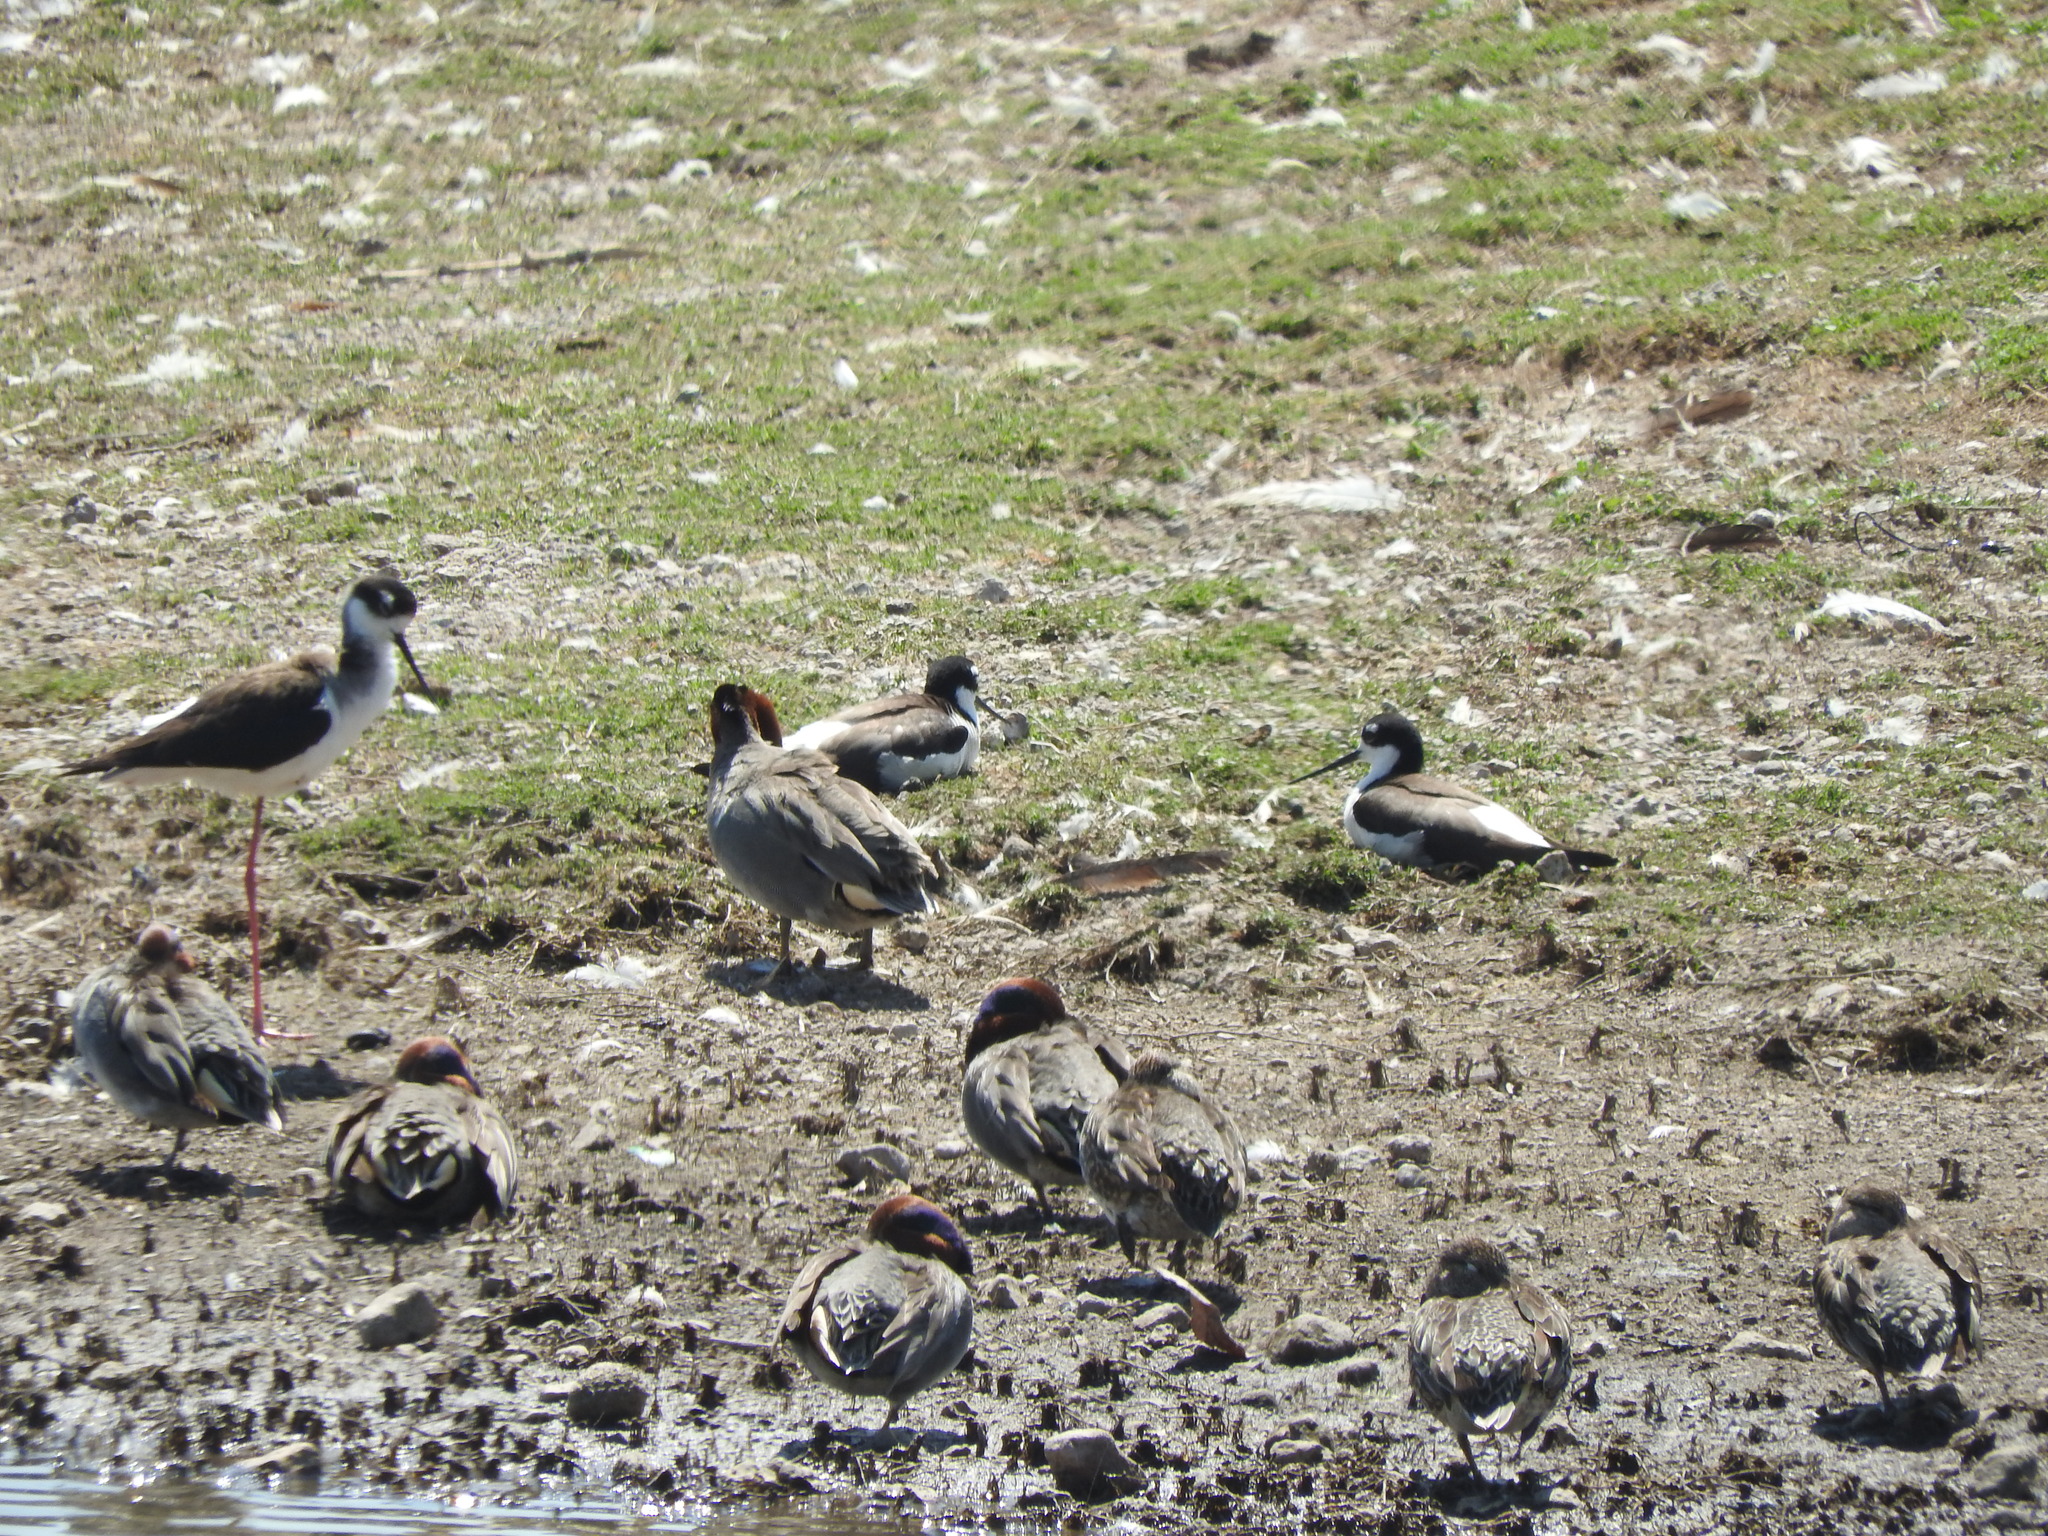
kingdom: Animalia
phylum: Chordata
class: Aves
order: Charadriiformes
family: Recurvirostridae
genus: Himantopus
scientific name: Himantopus mexicanus
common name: Black-necked stilt
